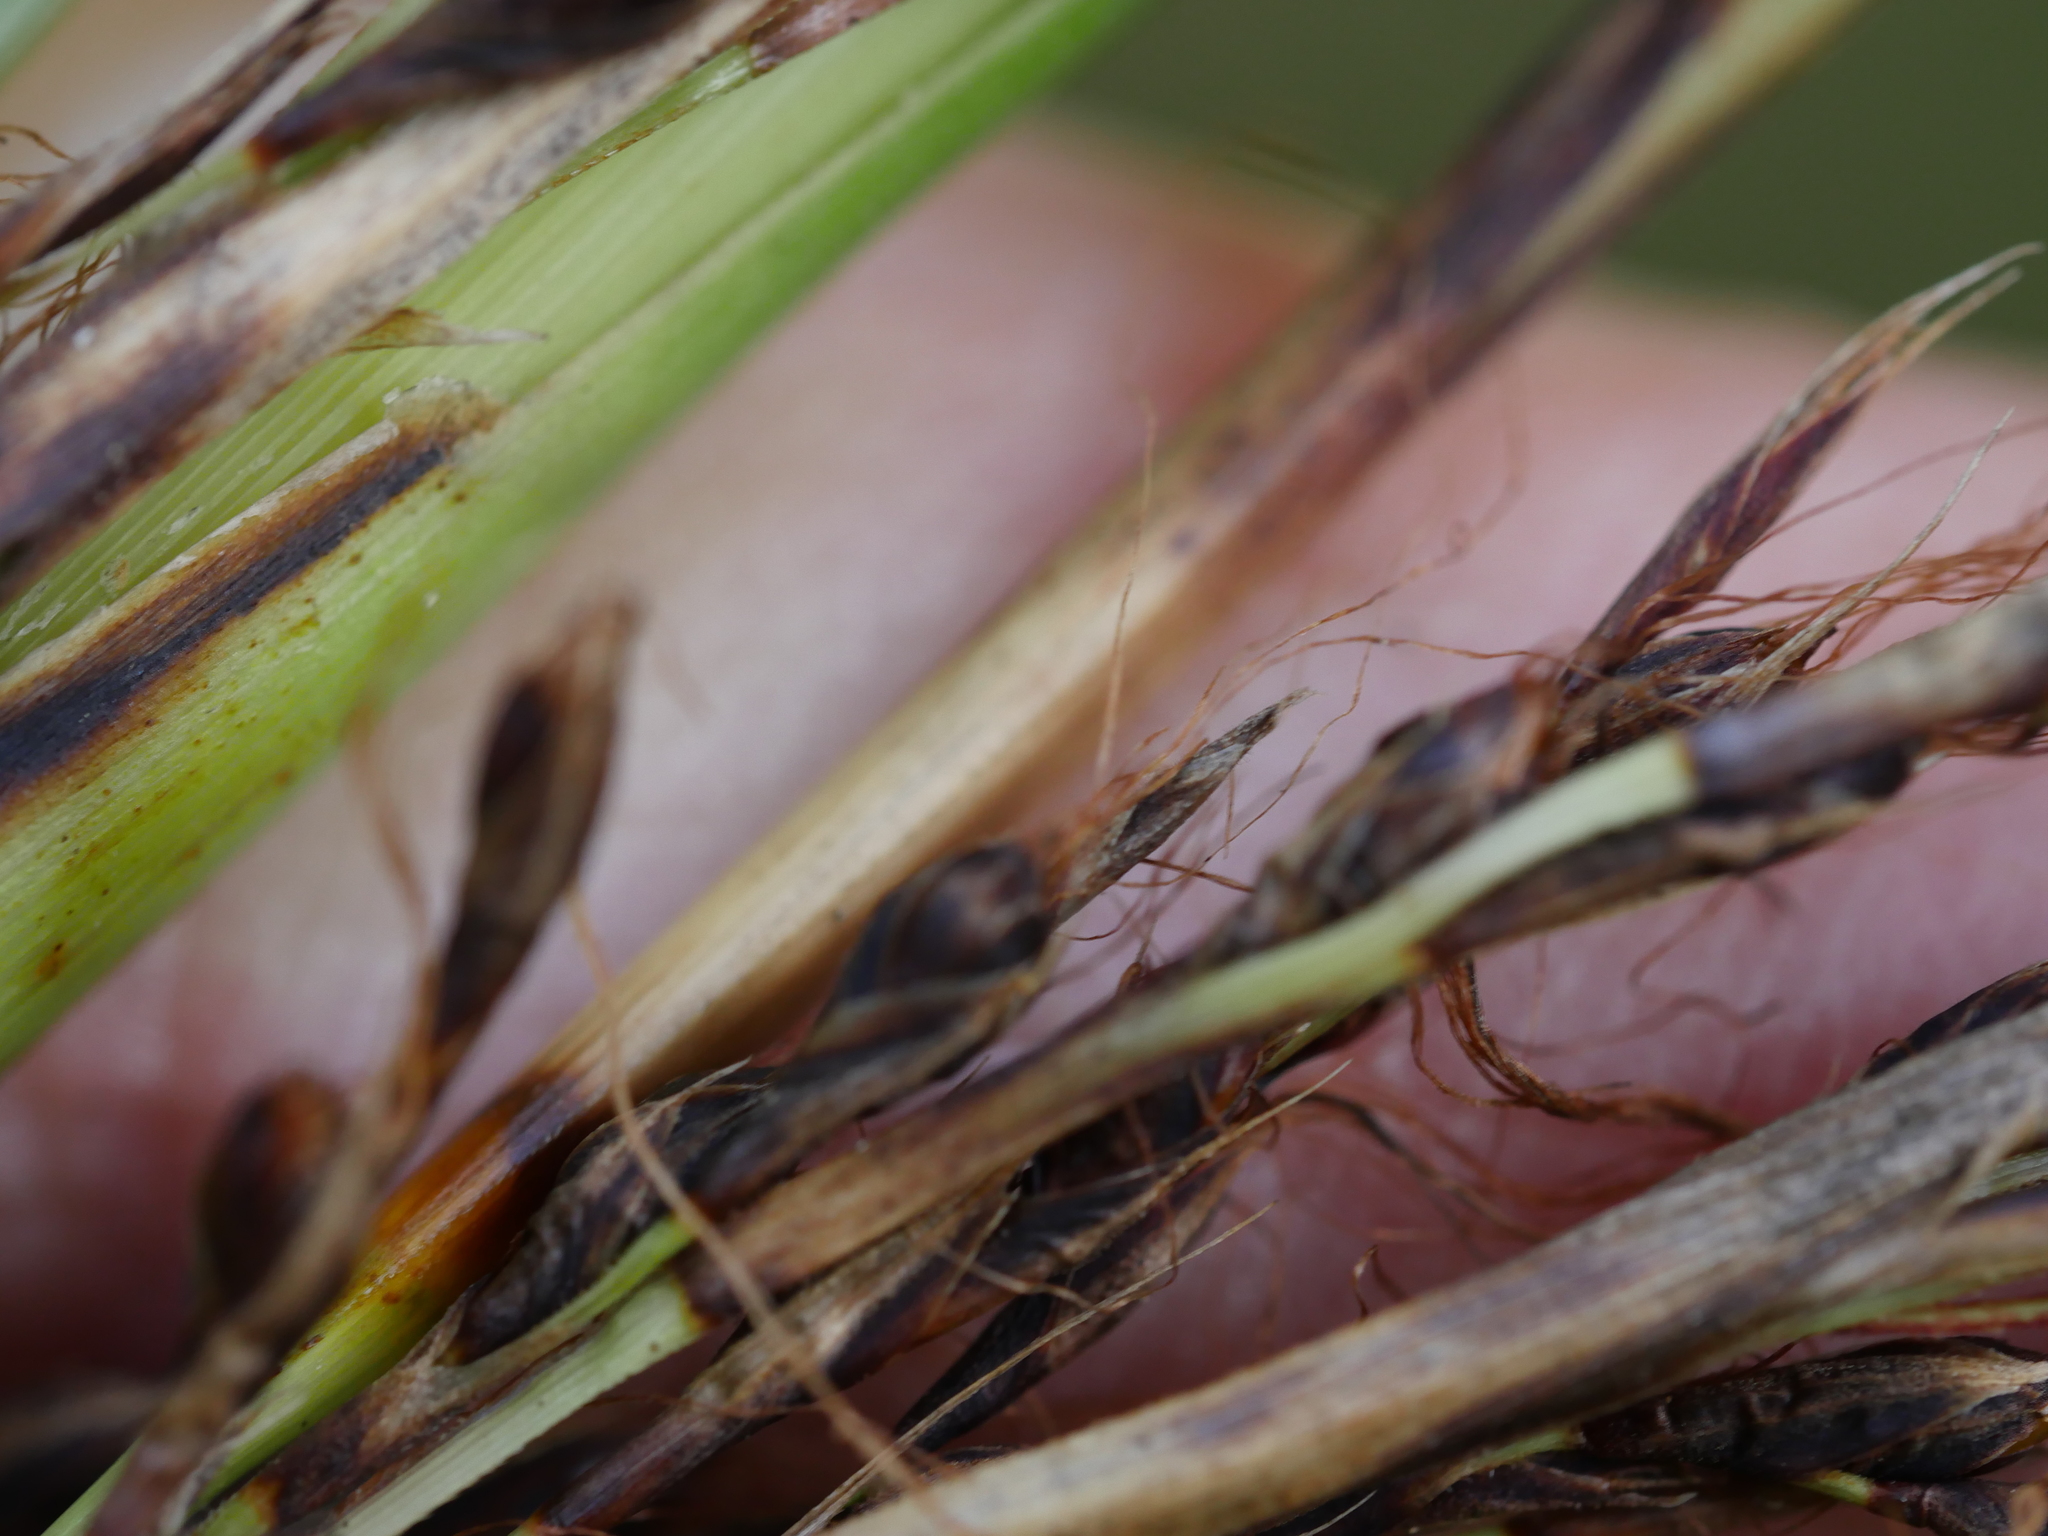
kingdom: Plantae
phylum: Tracheophyta
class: Liliopsida
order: Poales
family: Cyperaceae
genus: Gahnia
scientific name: Gahnia setifolia
